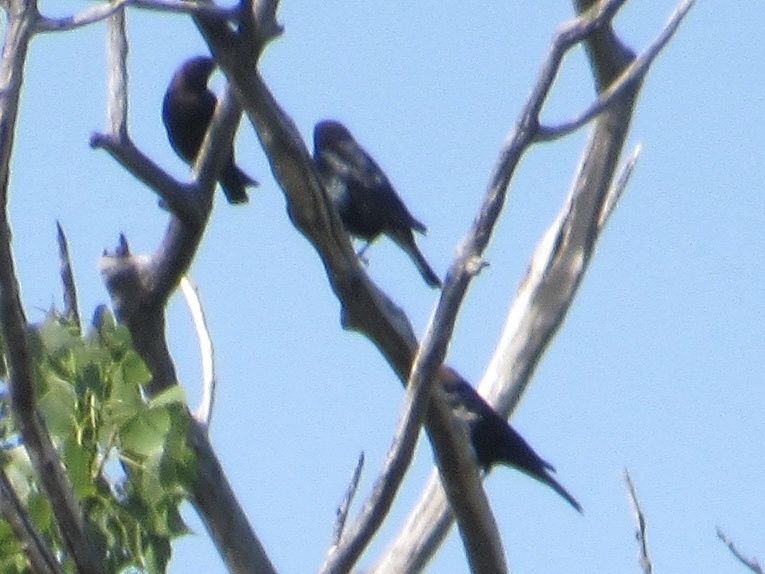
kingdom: Animalia
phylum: Chordata
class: Aves
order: Passeriformes
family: Icteridae
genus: Molothrus
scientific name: Molothrus ater
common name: Brown-headed cowbird
